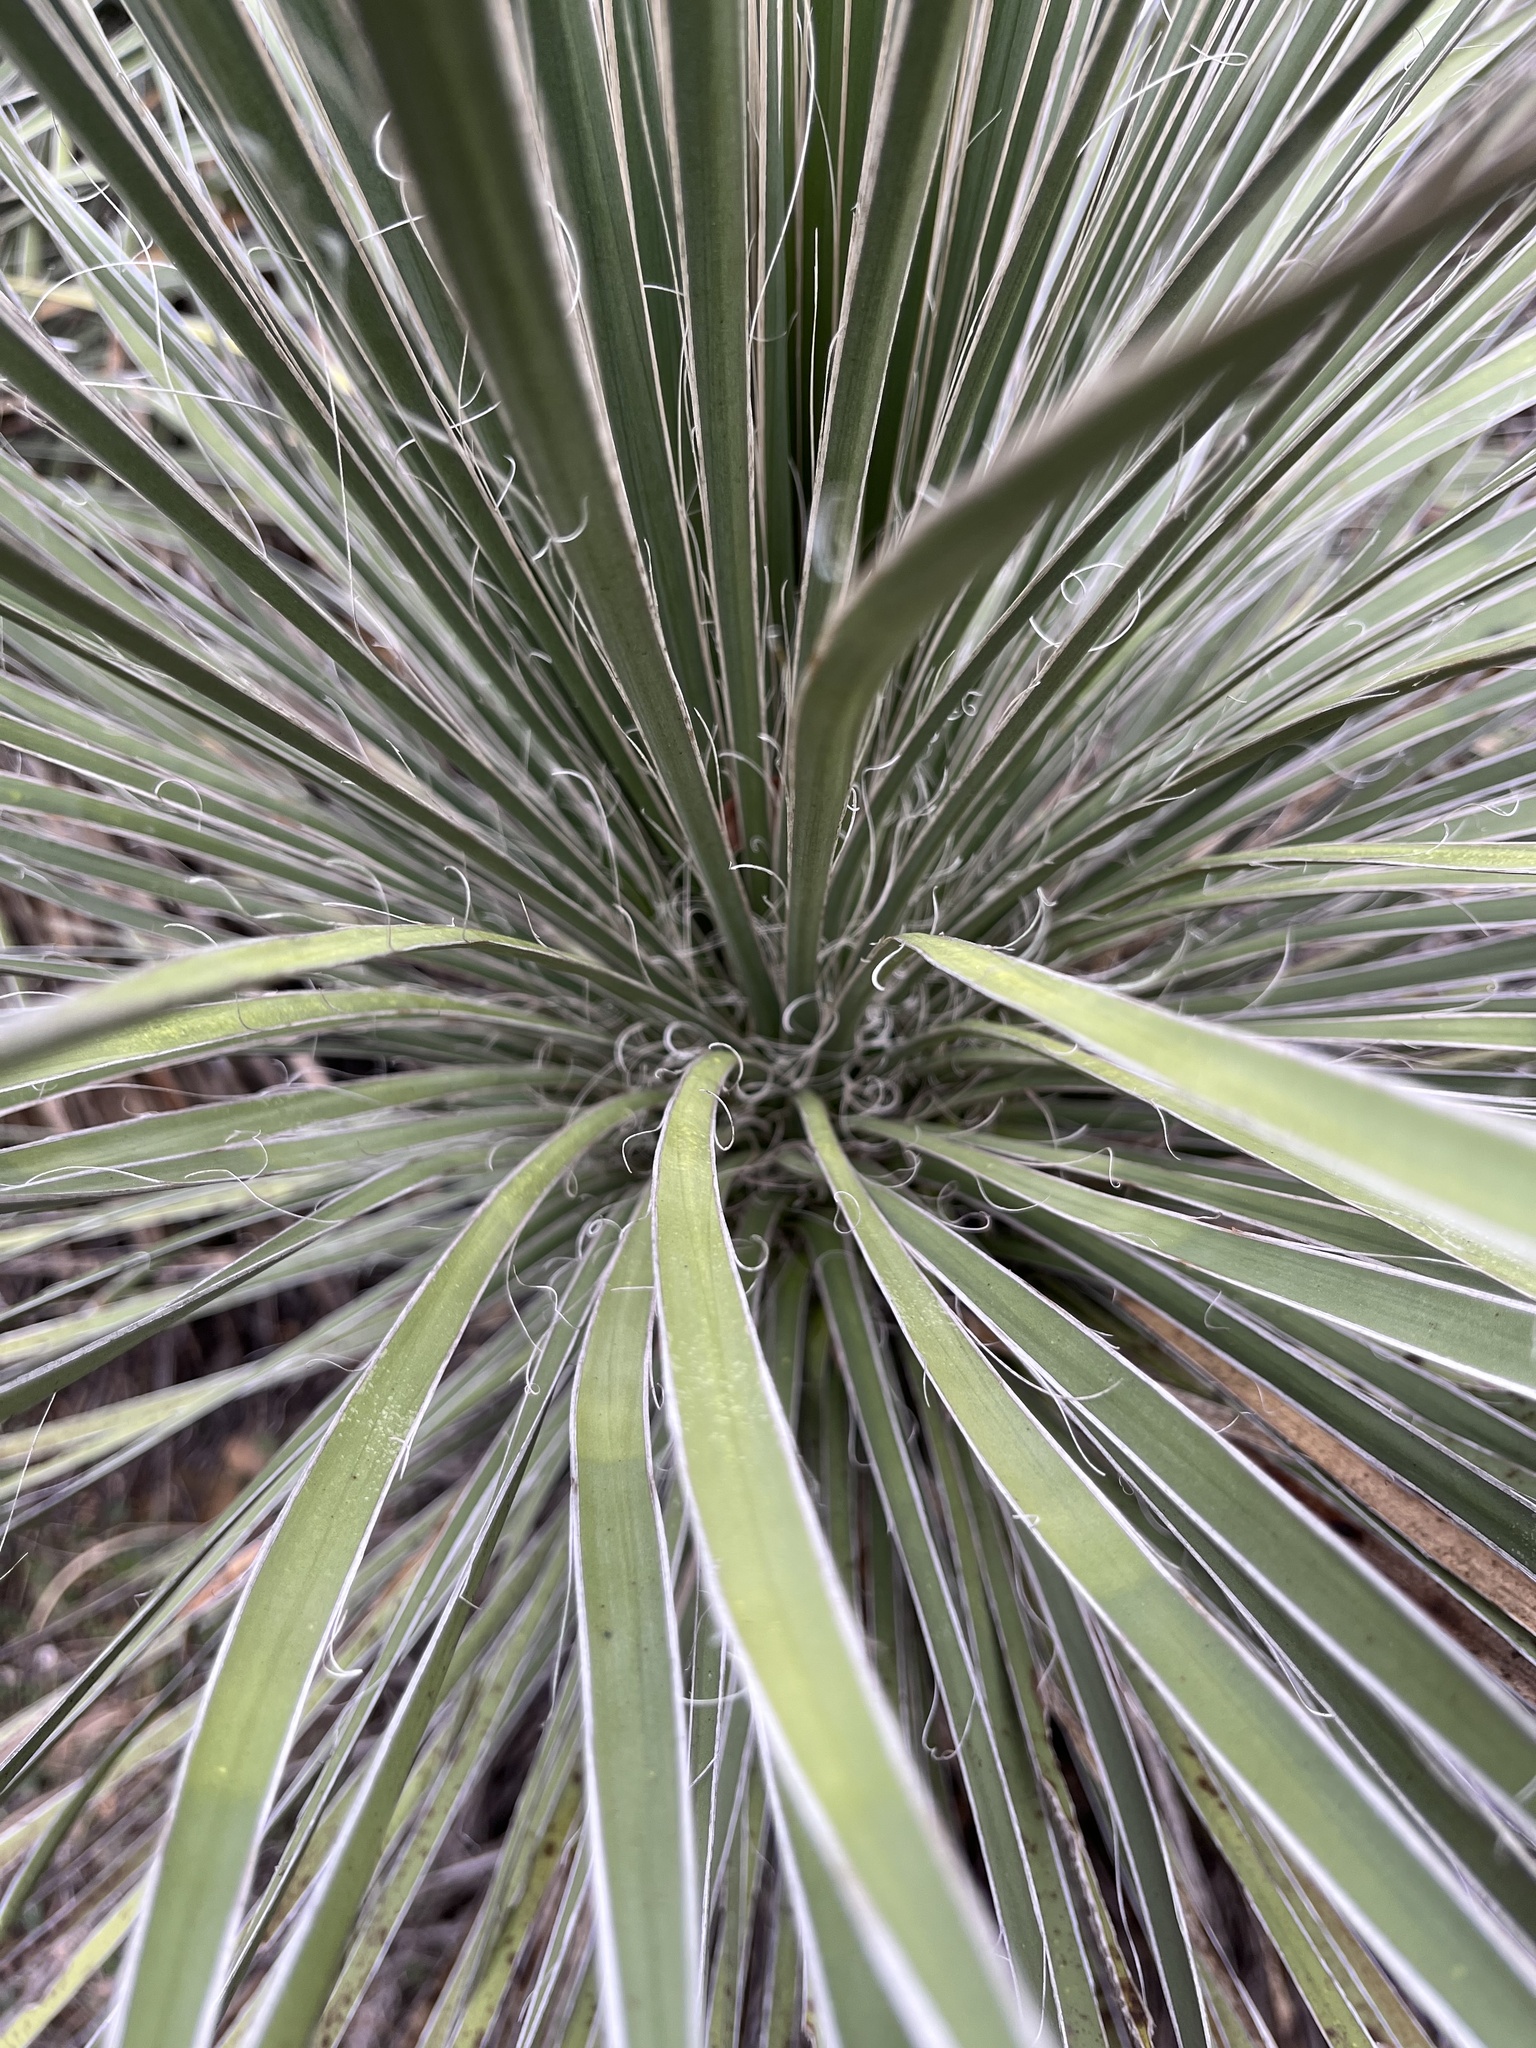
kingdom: Plantae
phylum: Tracheophyta
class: Liliopsida
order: Asparagales
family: Asparagaceae
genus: Yucca
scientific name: Yucca constricta
